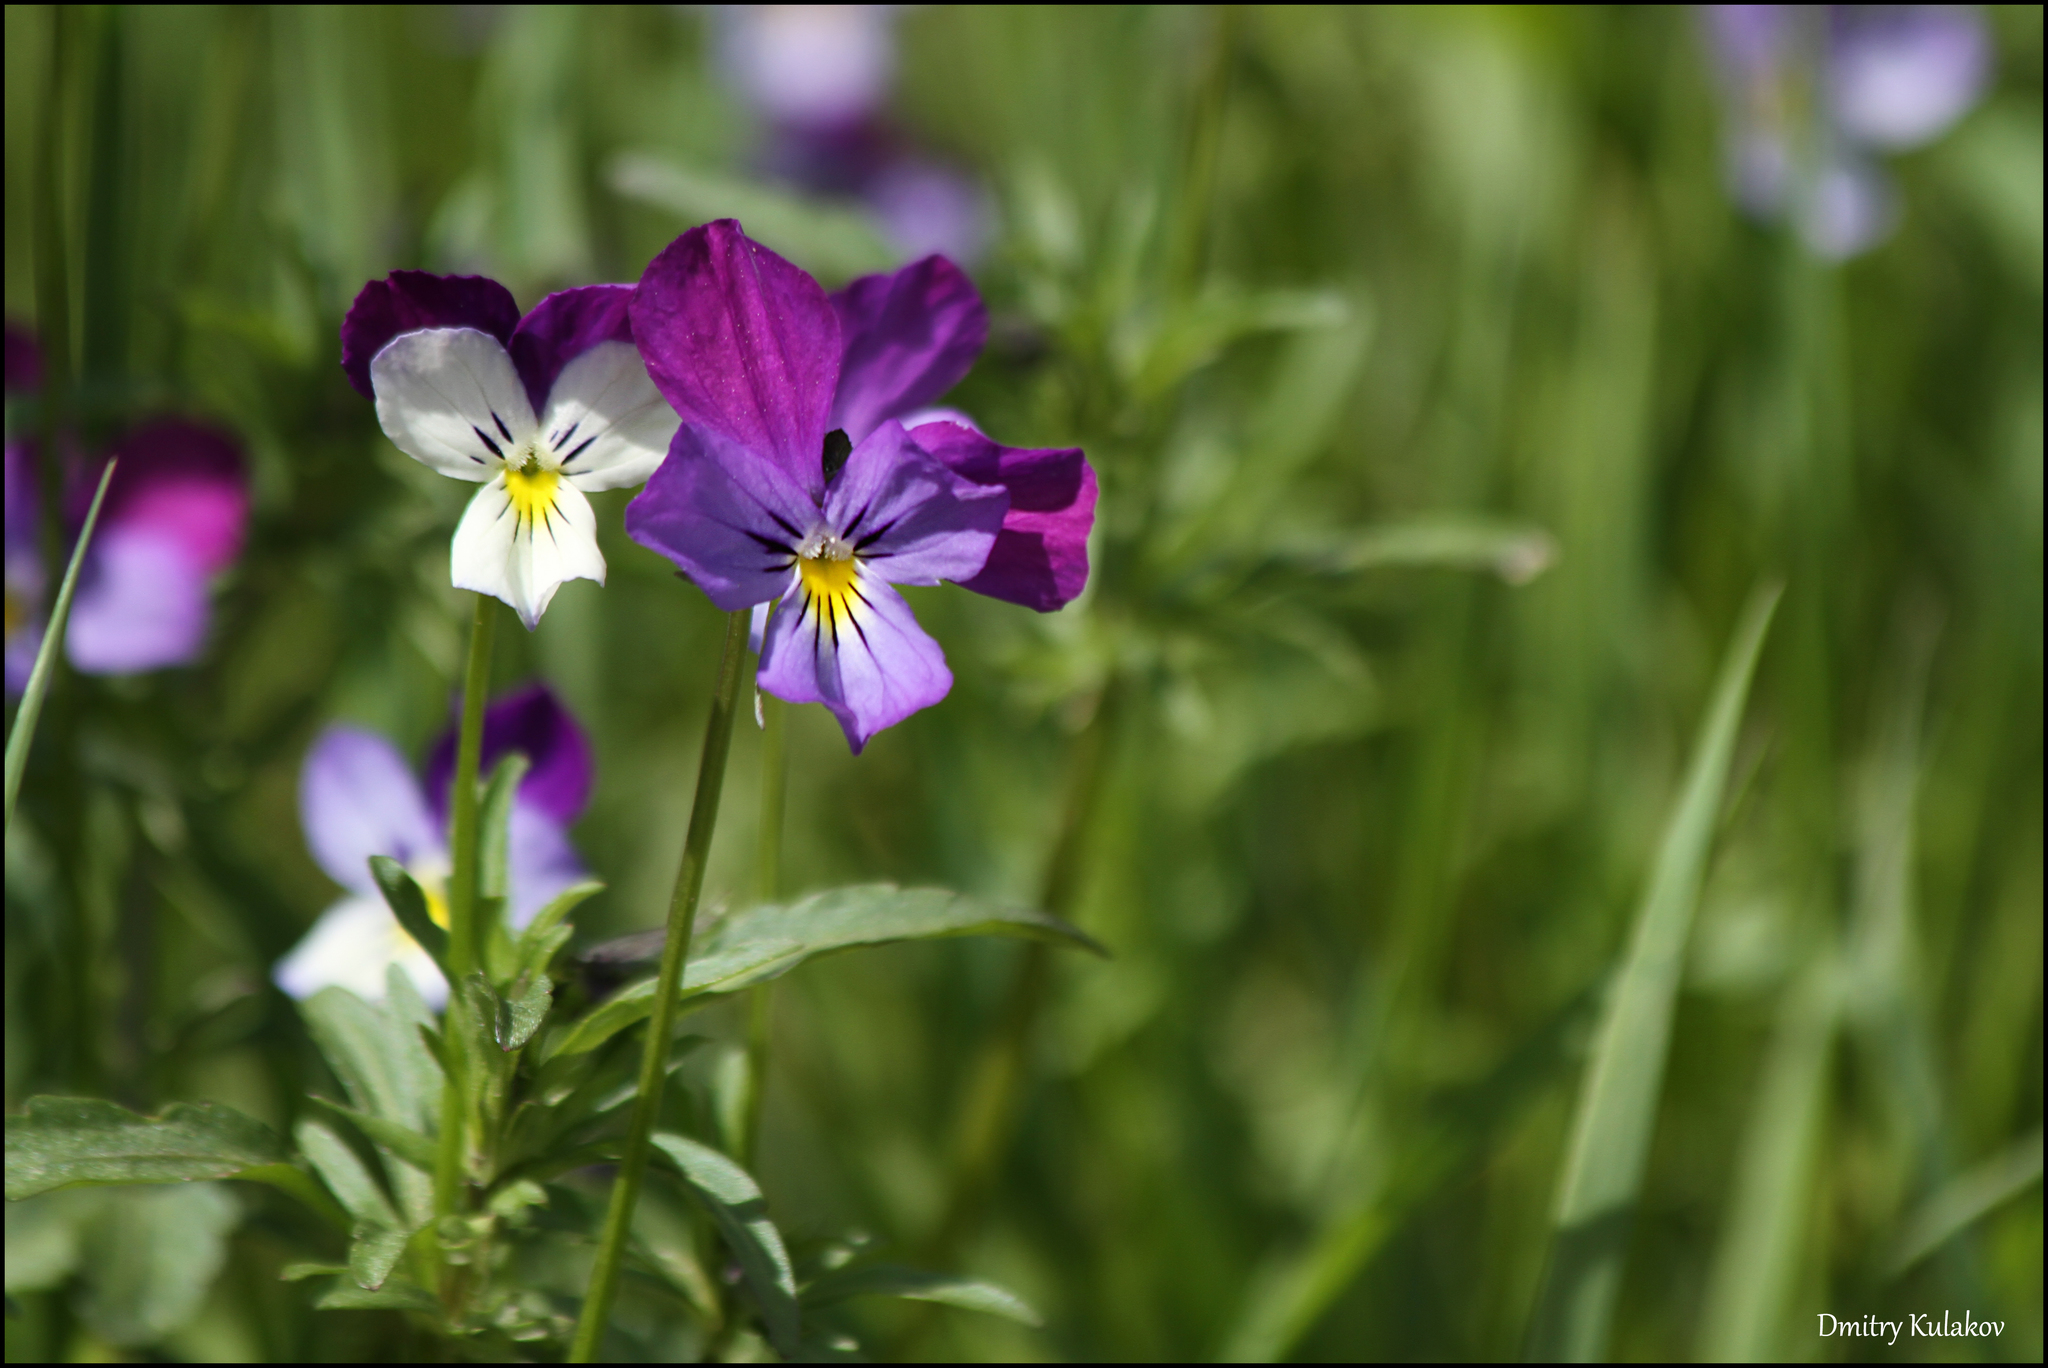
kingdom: Plantae
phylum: Tracheophyta
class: Magnoliopsida
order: Malpighiales
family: Violaceae
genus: Viola
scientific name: Viola tricolor
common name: Pansy
